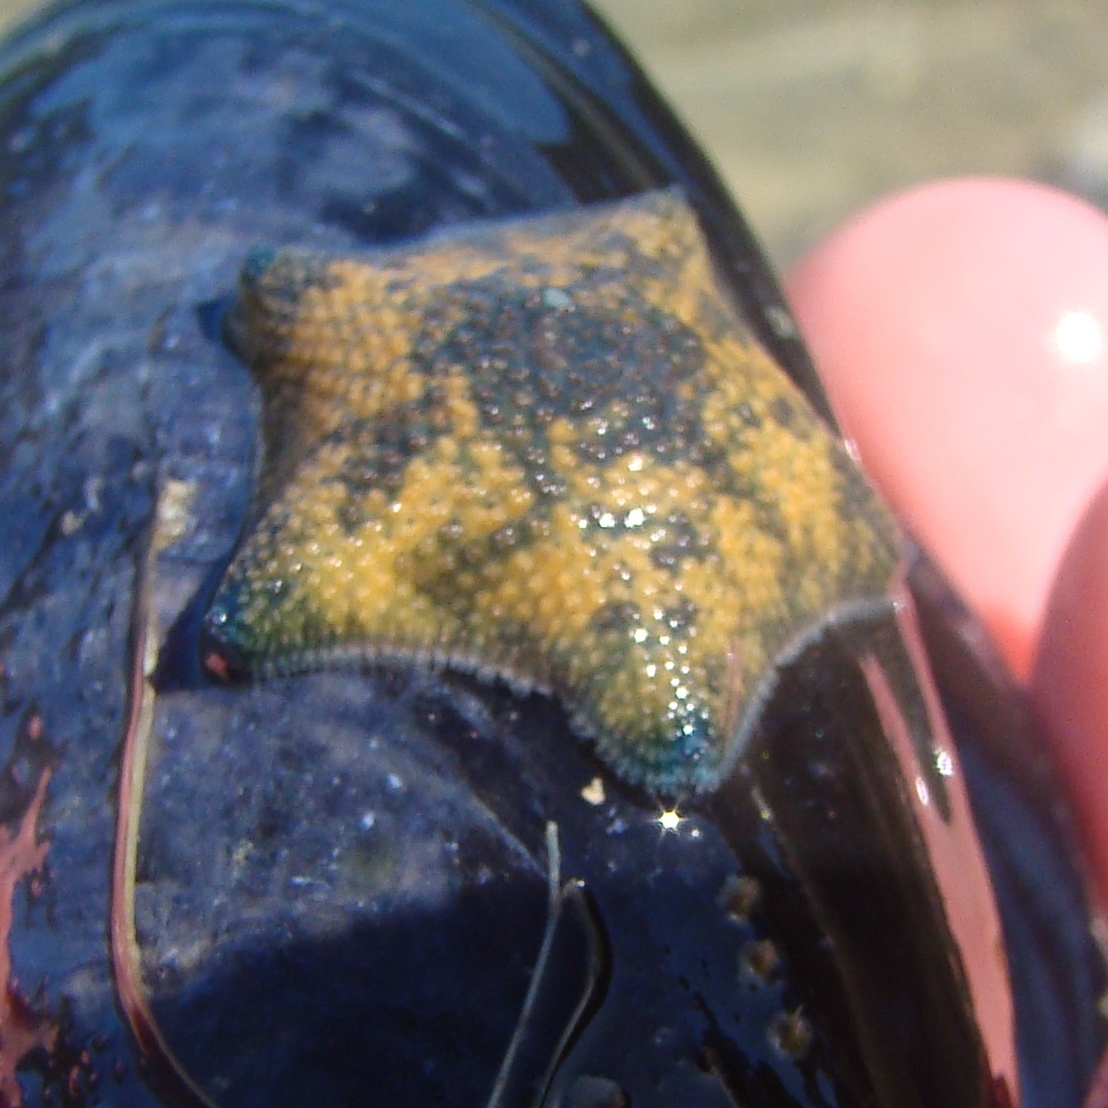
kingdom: Animalia
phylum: Echinodermata
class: Asteroidea
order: Valvatida
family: Asterinidae
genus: Patiriella
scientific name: Patiriella regularis
